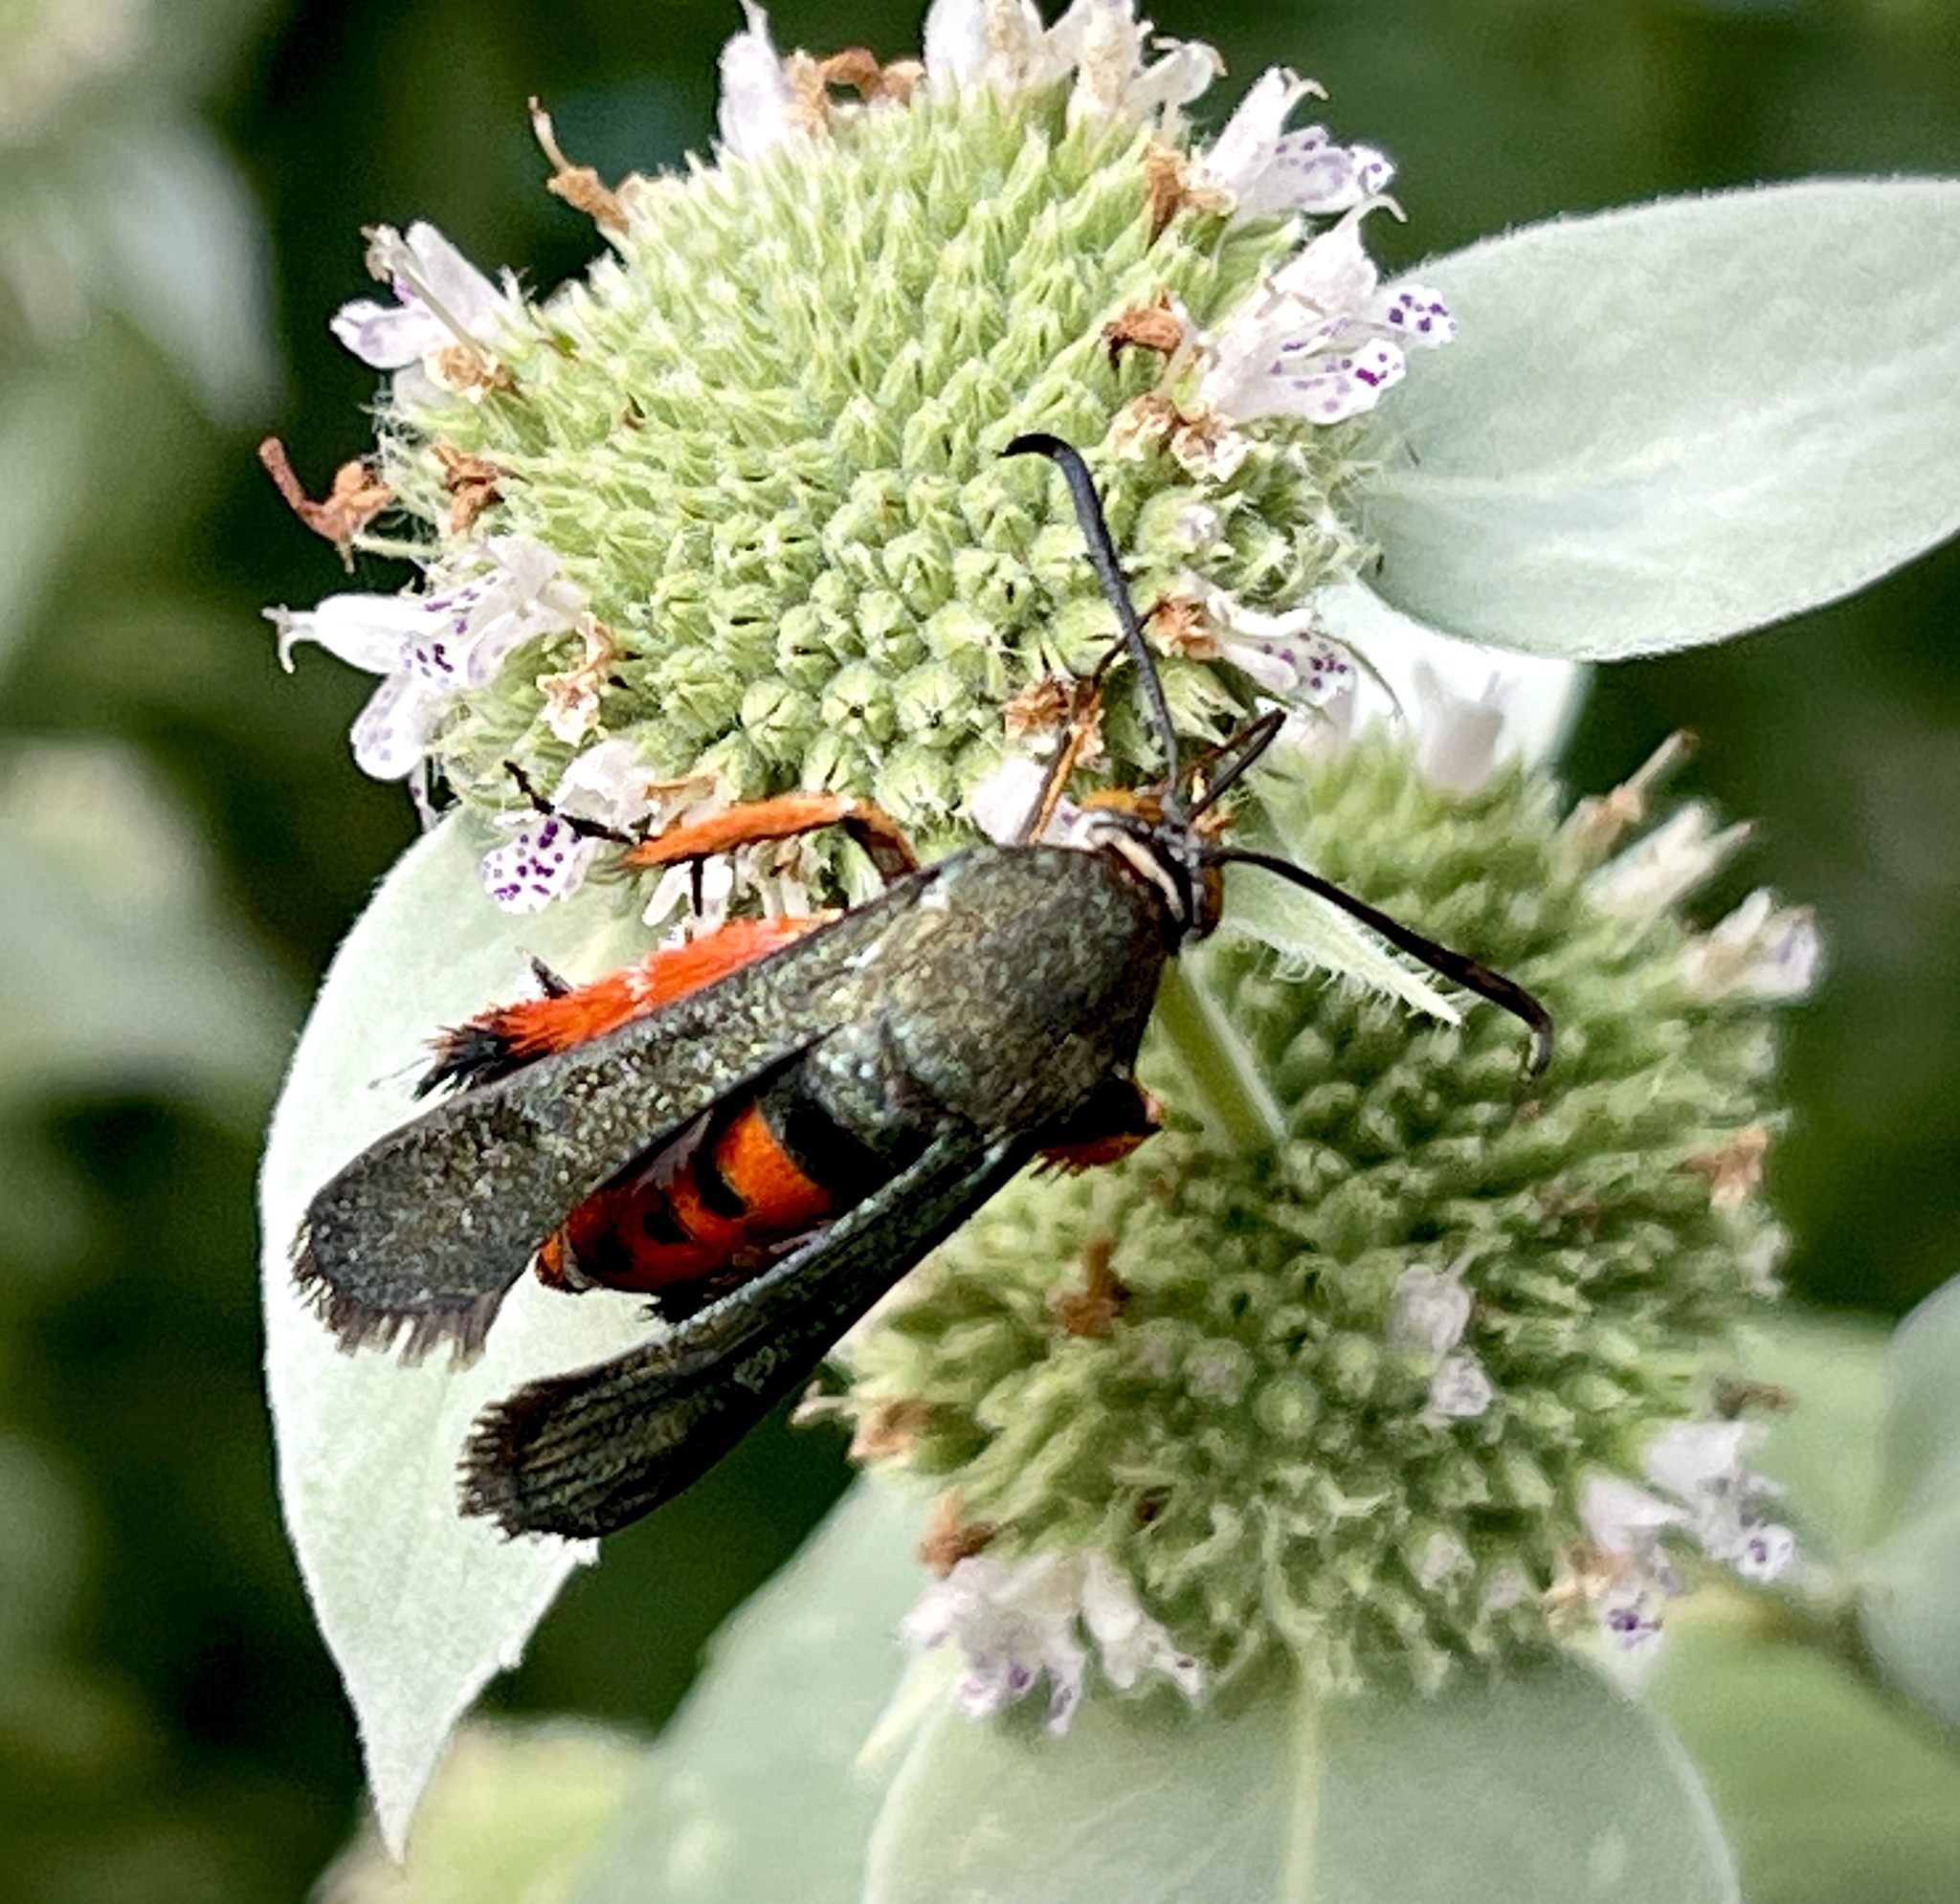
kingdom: Animalia
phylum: Arthropoda
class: Insecta
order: Lepidoptera
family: Sesiidae
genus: Eichlinia
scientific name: Eichlinia cucurbitae
